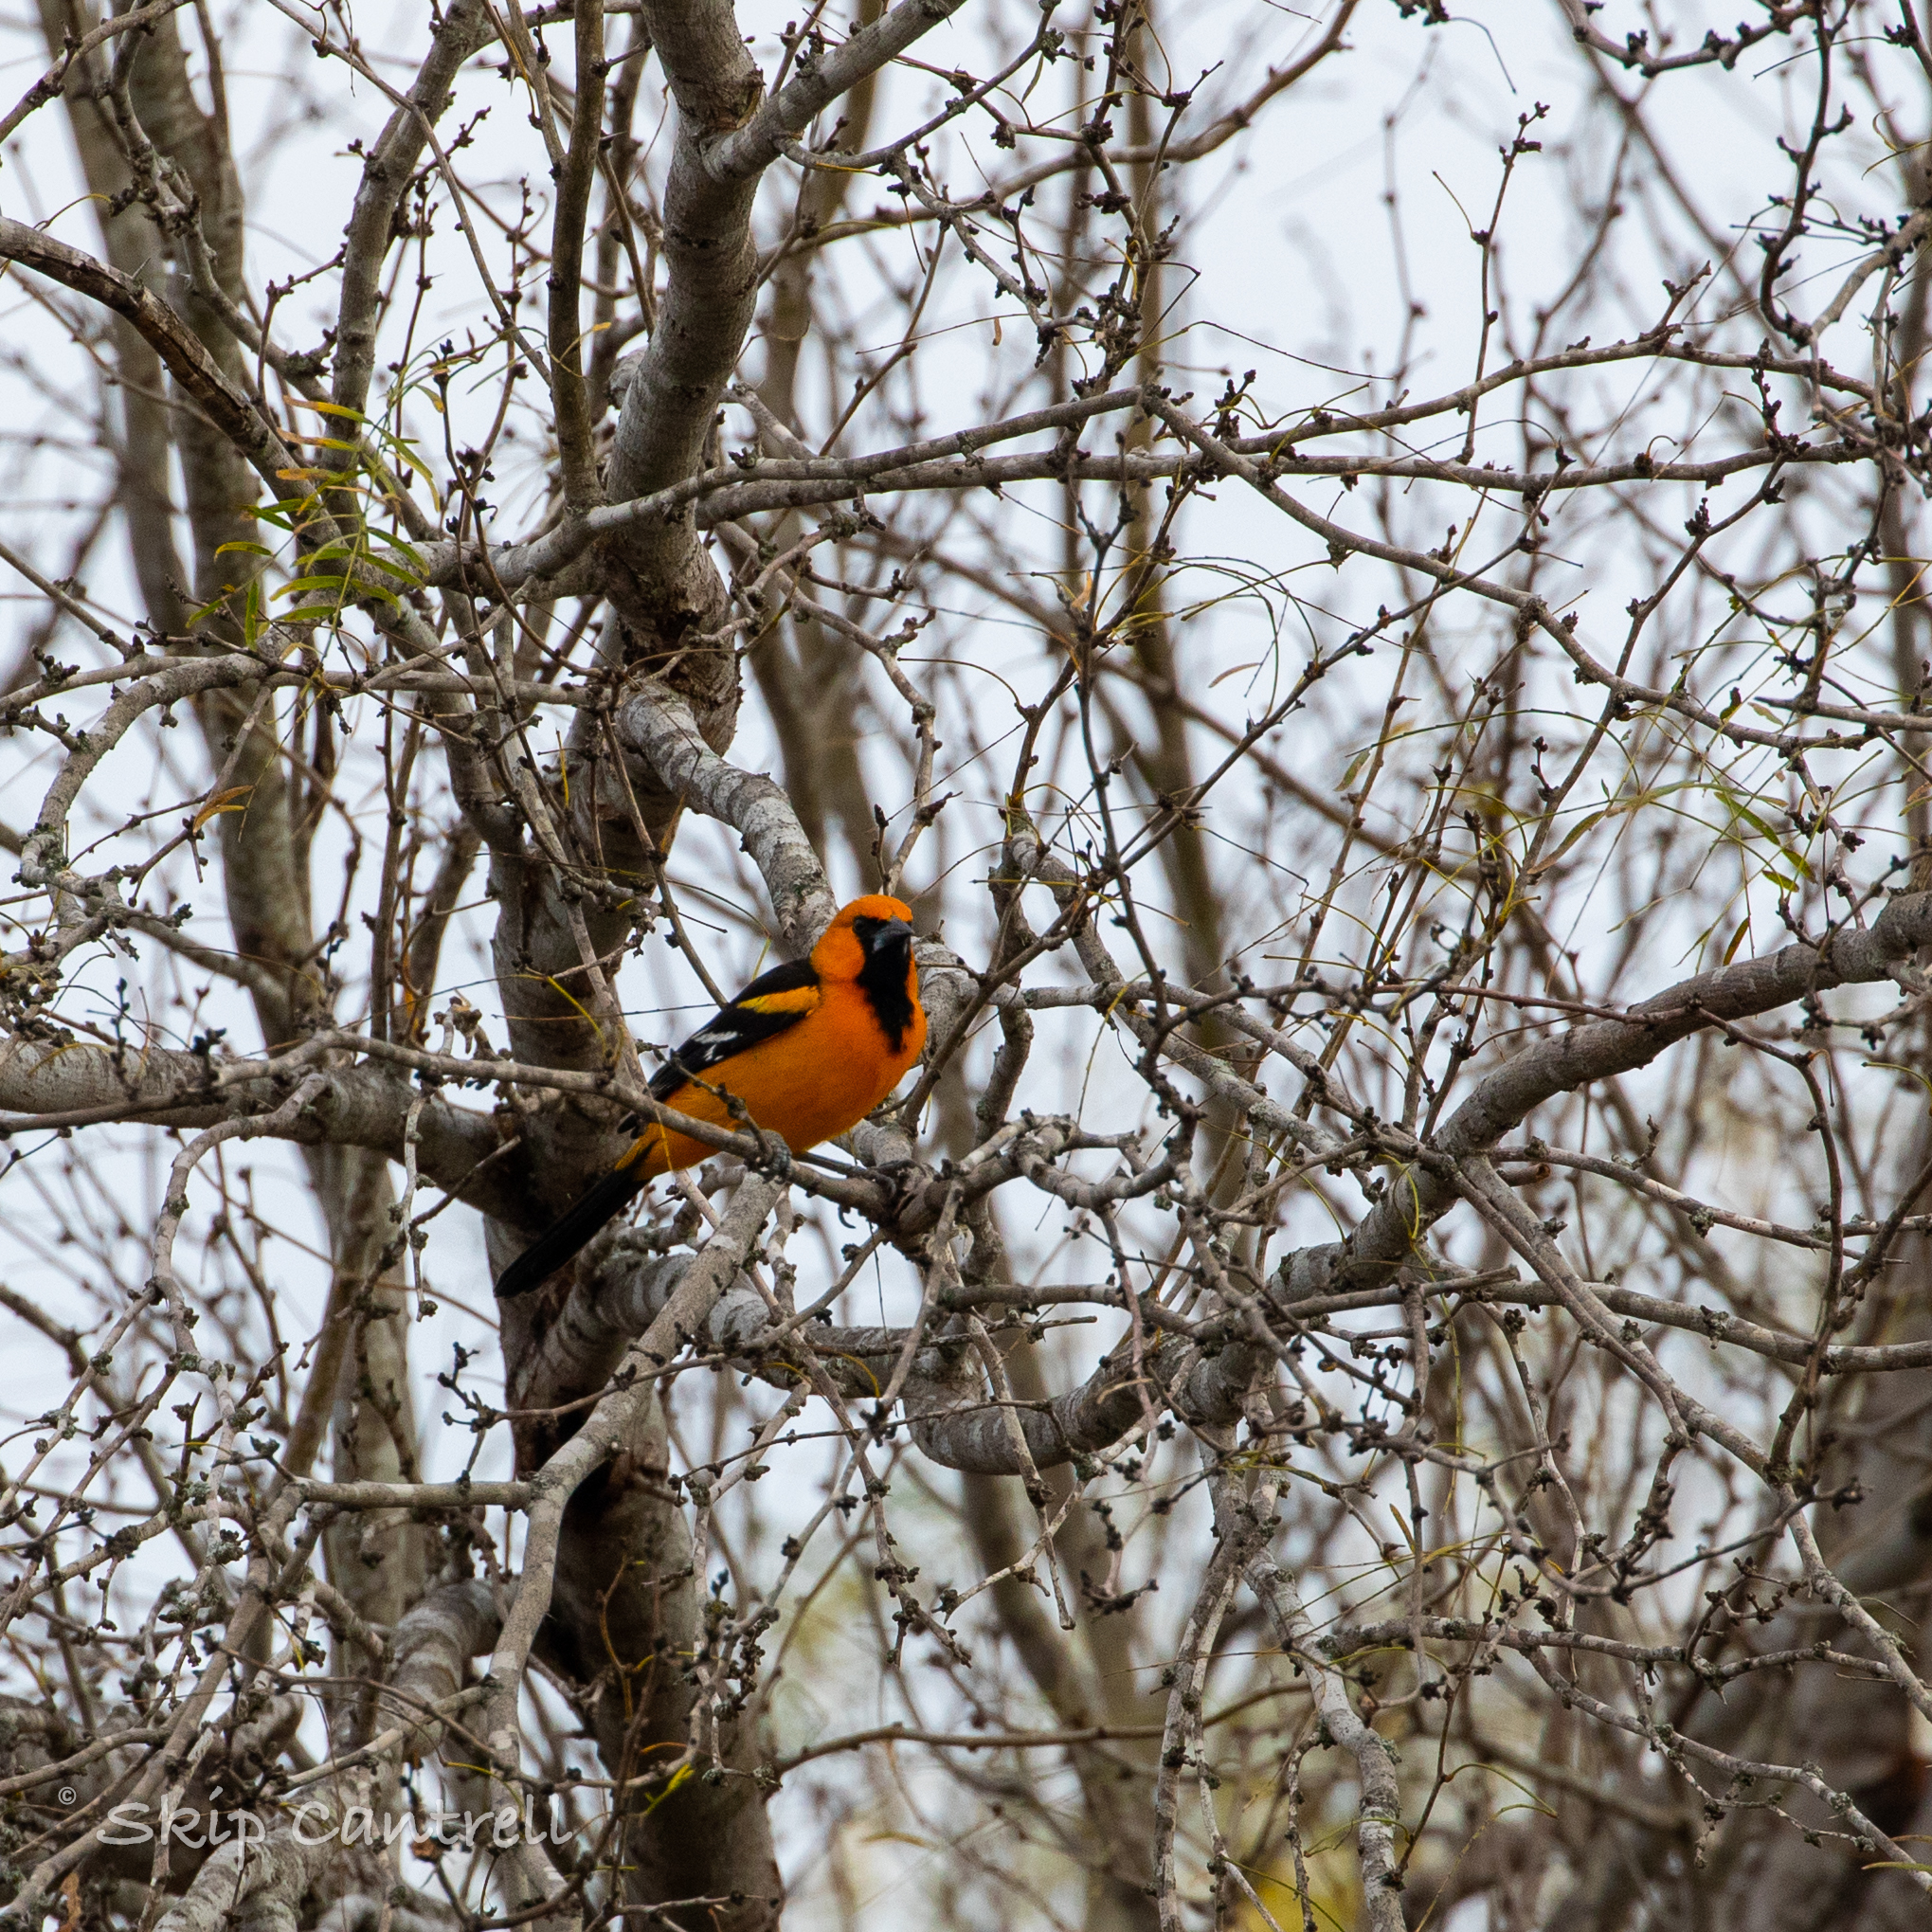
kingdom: Animalia
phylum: Chordata
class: Aves
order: Passeriformes
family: Icteridae
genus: Icterus
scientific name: Icterus gularis
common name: Altamira oriole
